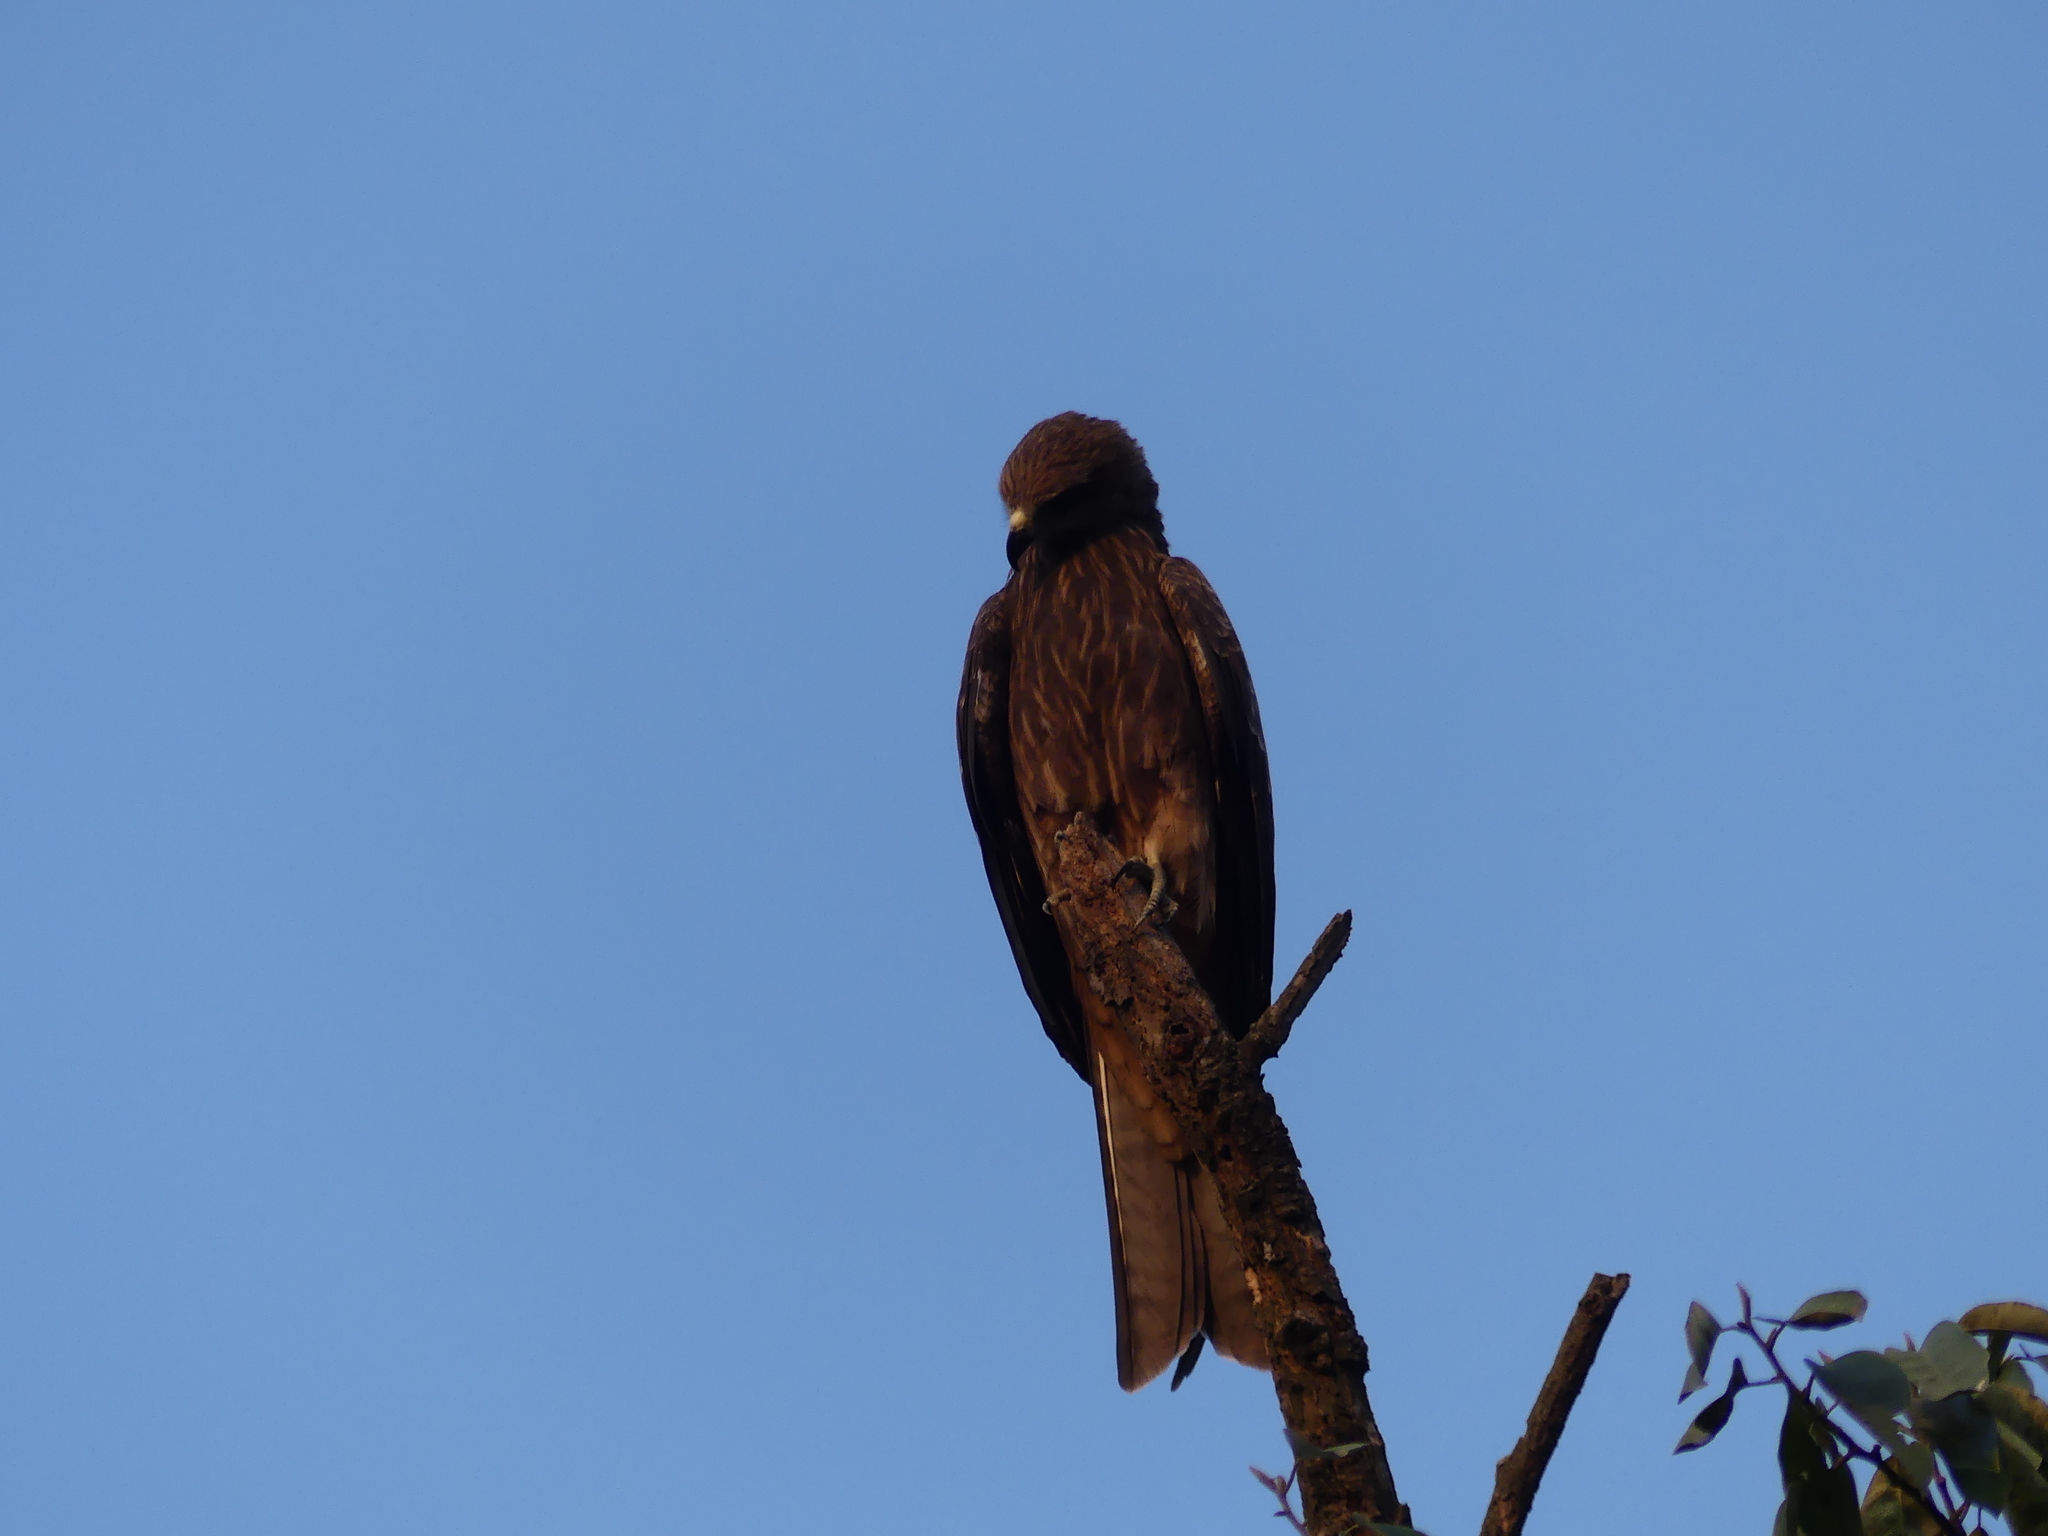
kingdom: Animalia
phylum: Chordata
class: Aves
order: Accipitriformes
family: Accipitridae
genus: Milvus
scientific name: Milvus migrans
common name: Black kite
